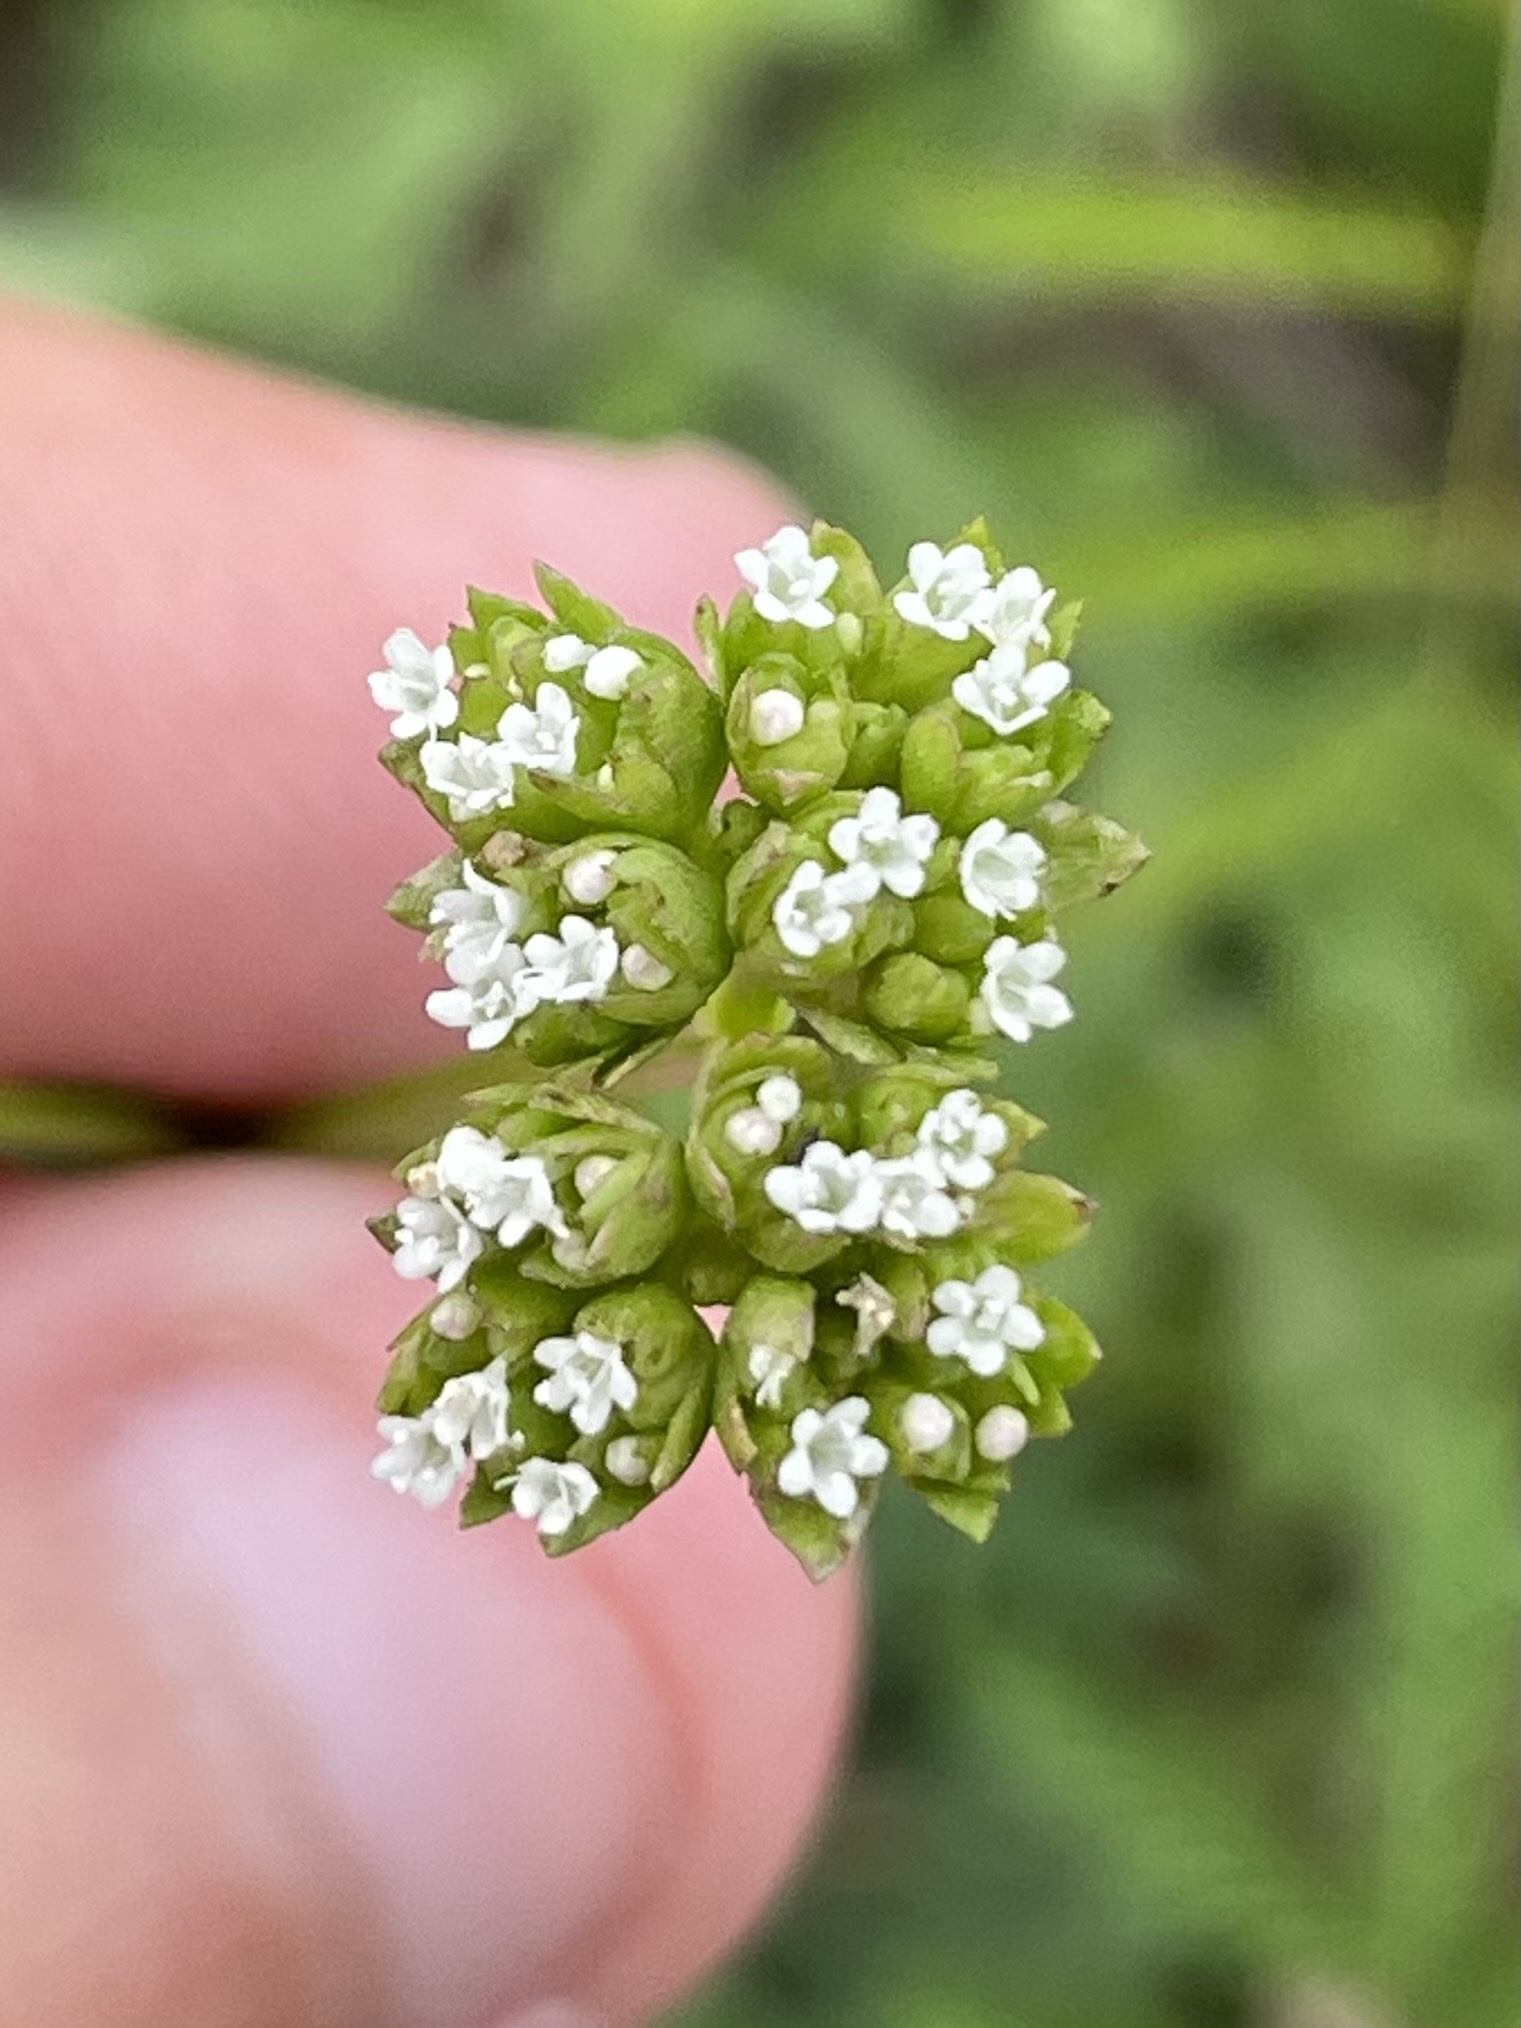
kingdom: Plantae
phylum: Tracheophyta
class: Magnoliopsida
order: Dipsacales
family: Caprifoliaceae
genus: Valerianella
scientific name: Valerianella radiata
